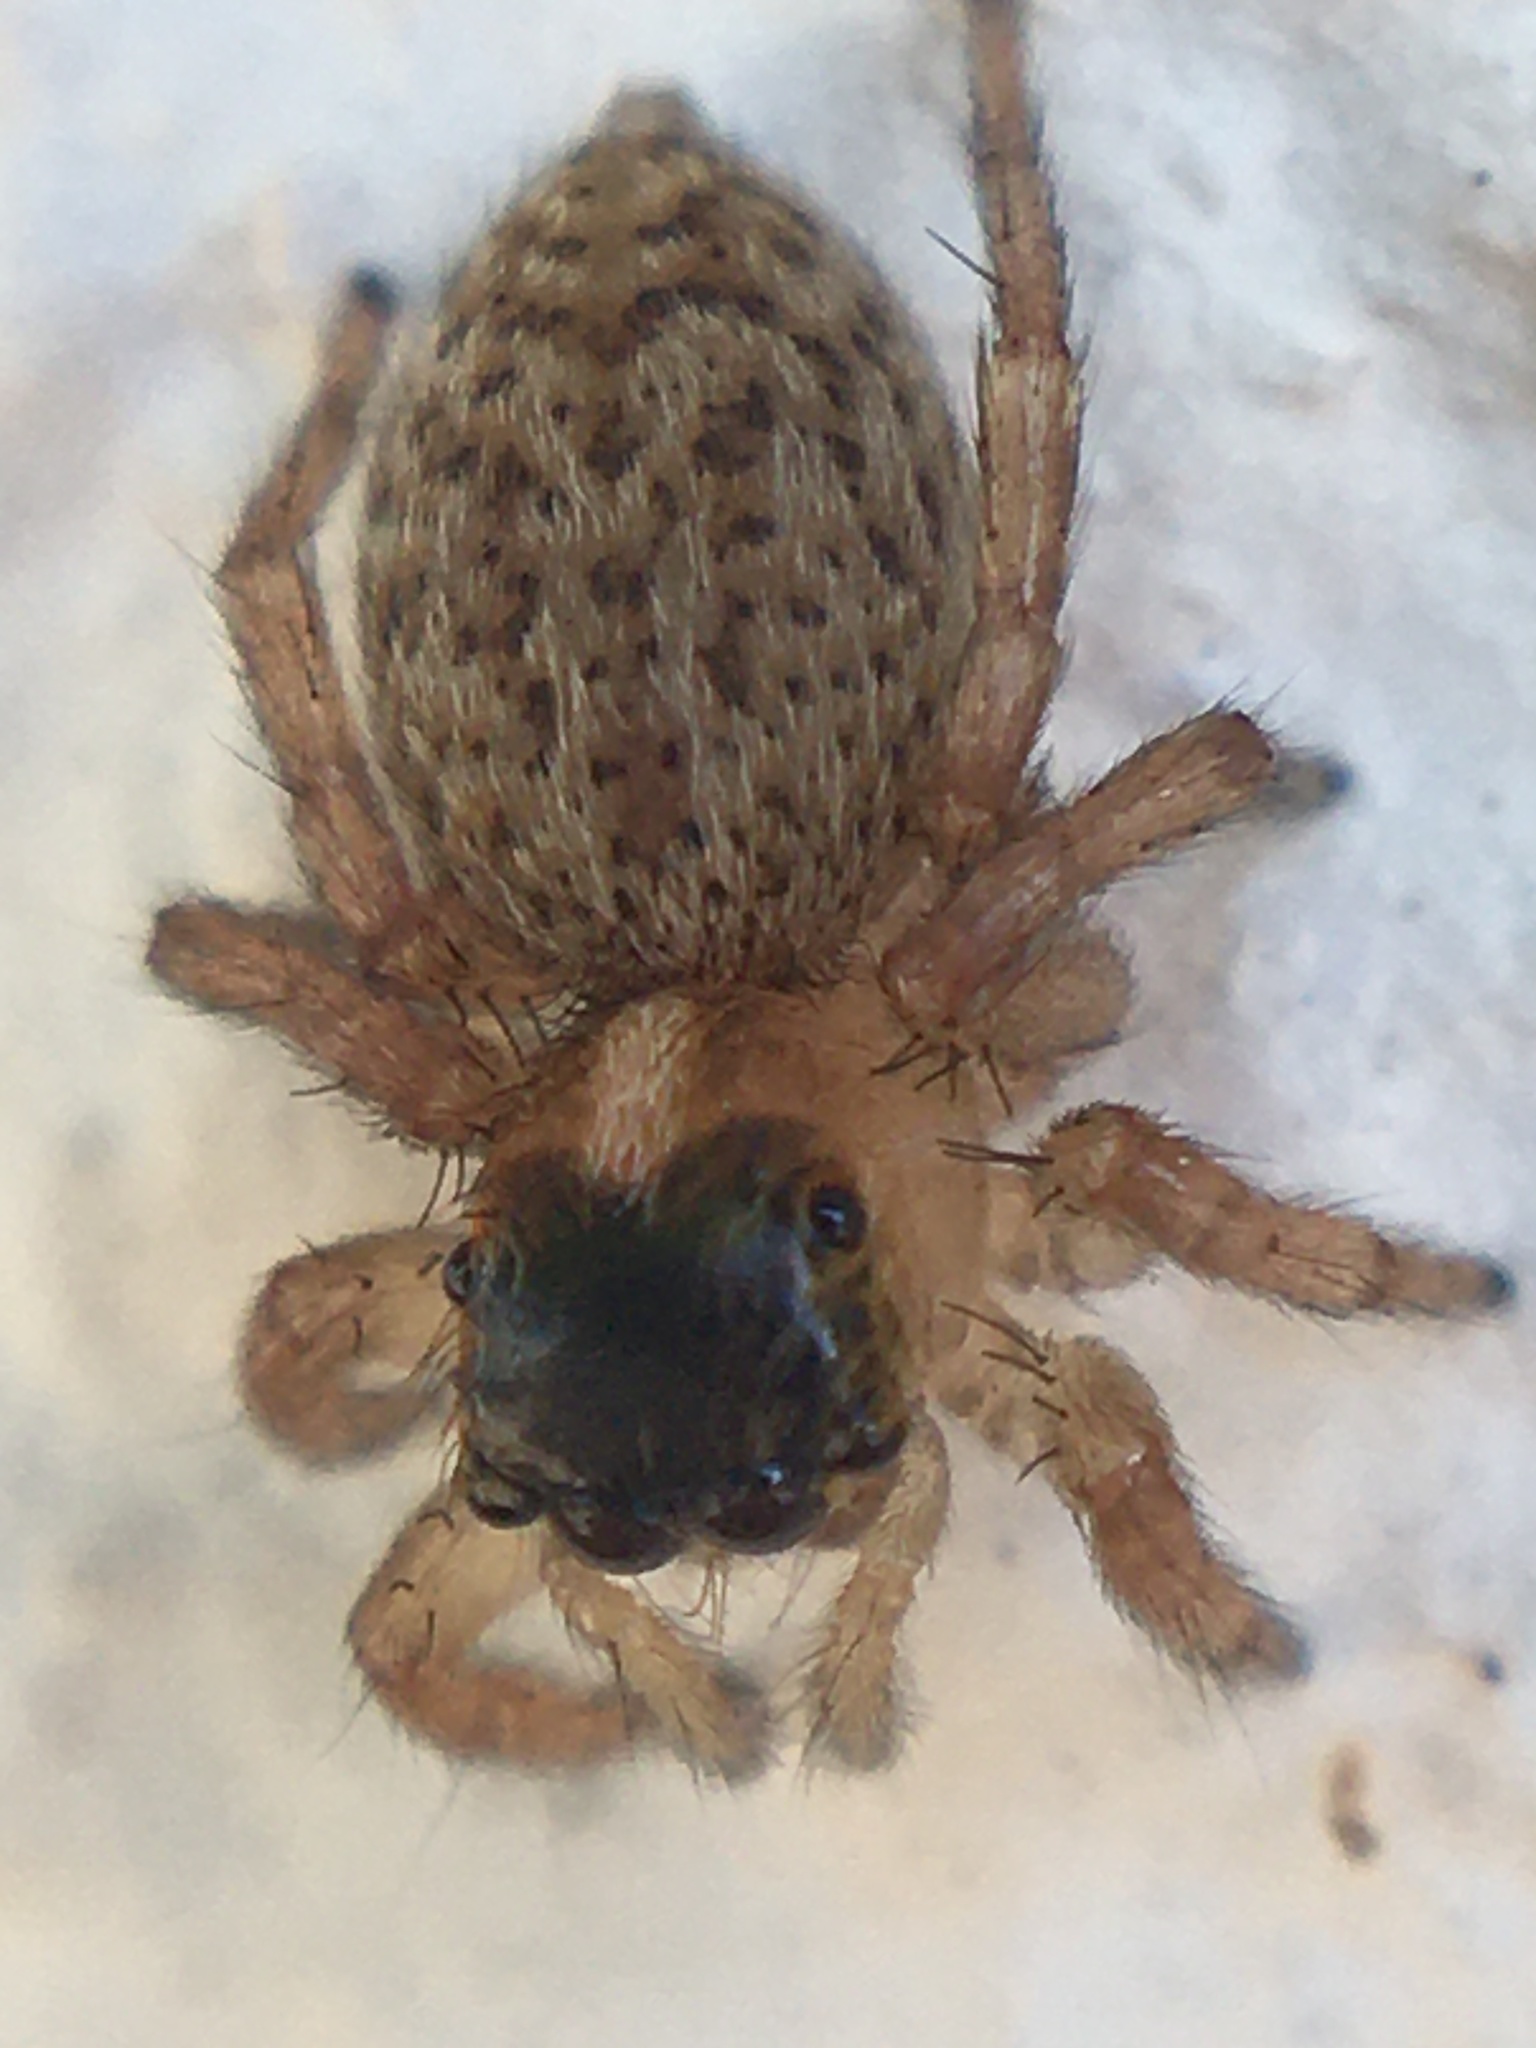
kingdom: Animalia
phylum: Arthropoda
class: Arachnida
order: Araneae
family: Salticidae
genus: Saitis
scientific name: Saitis barbipes
